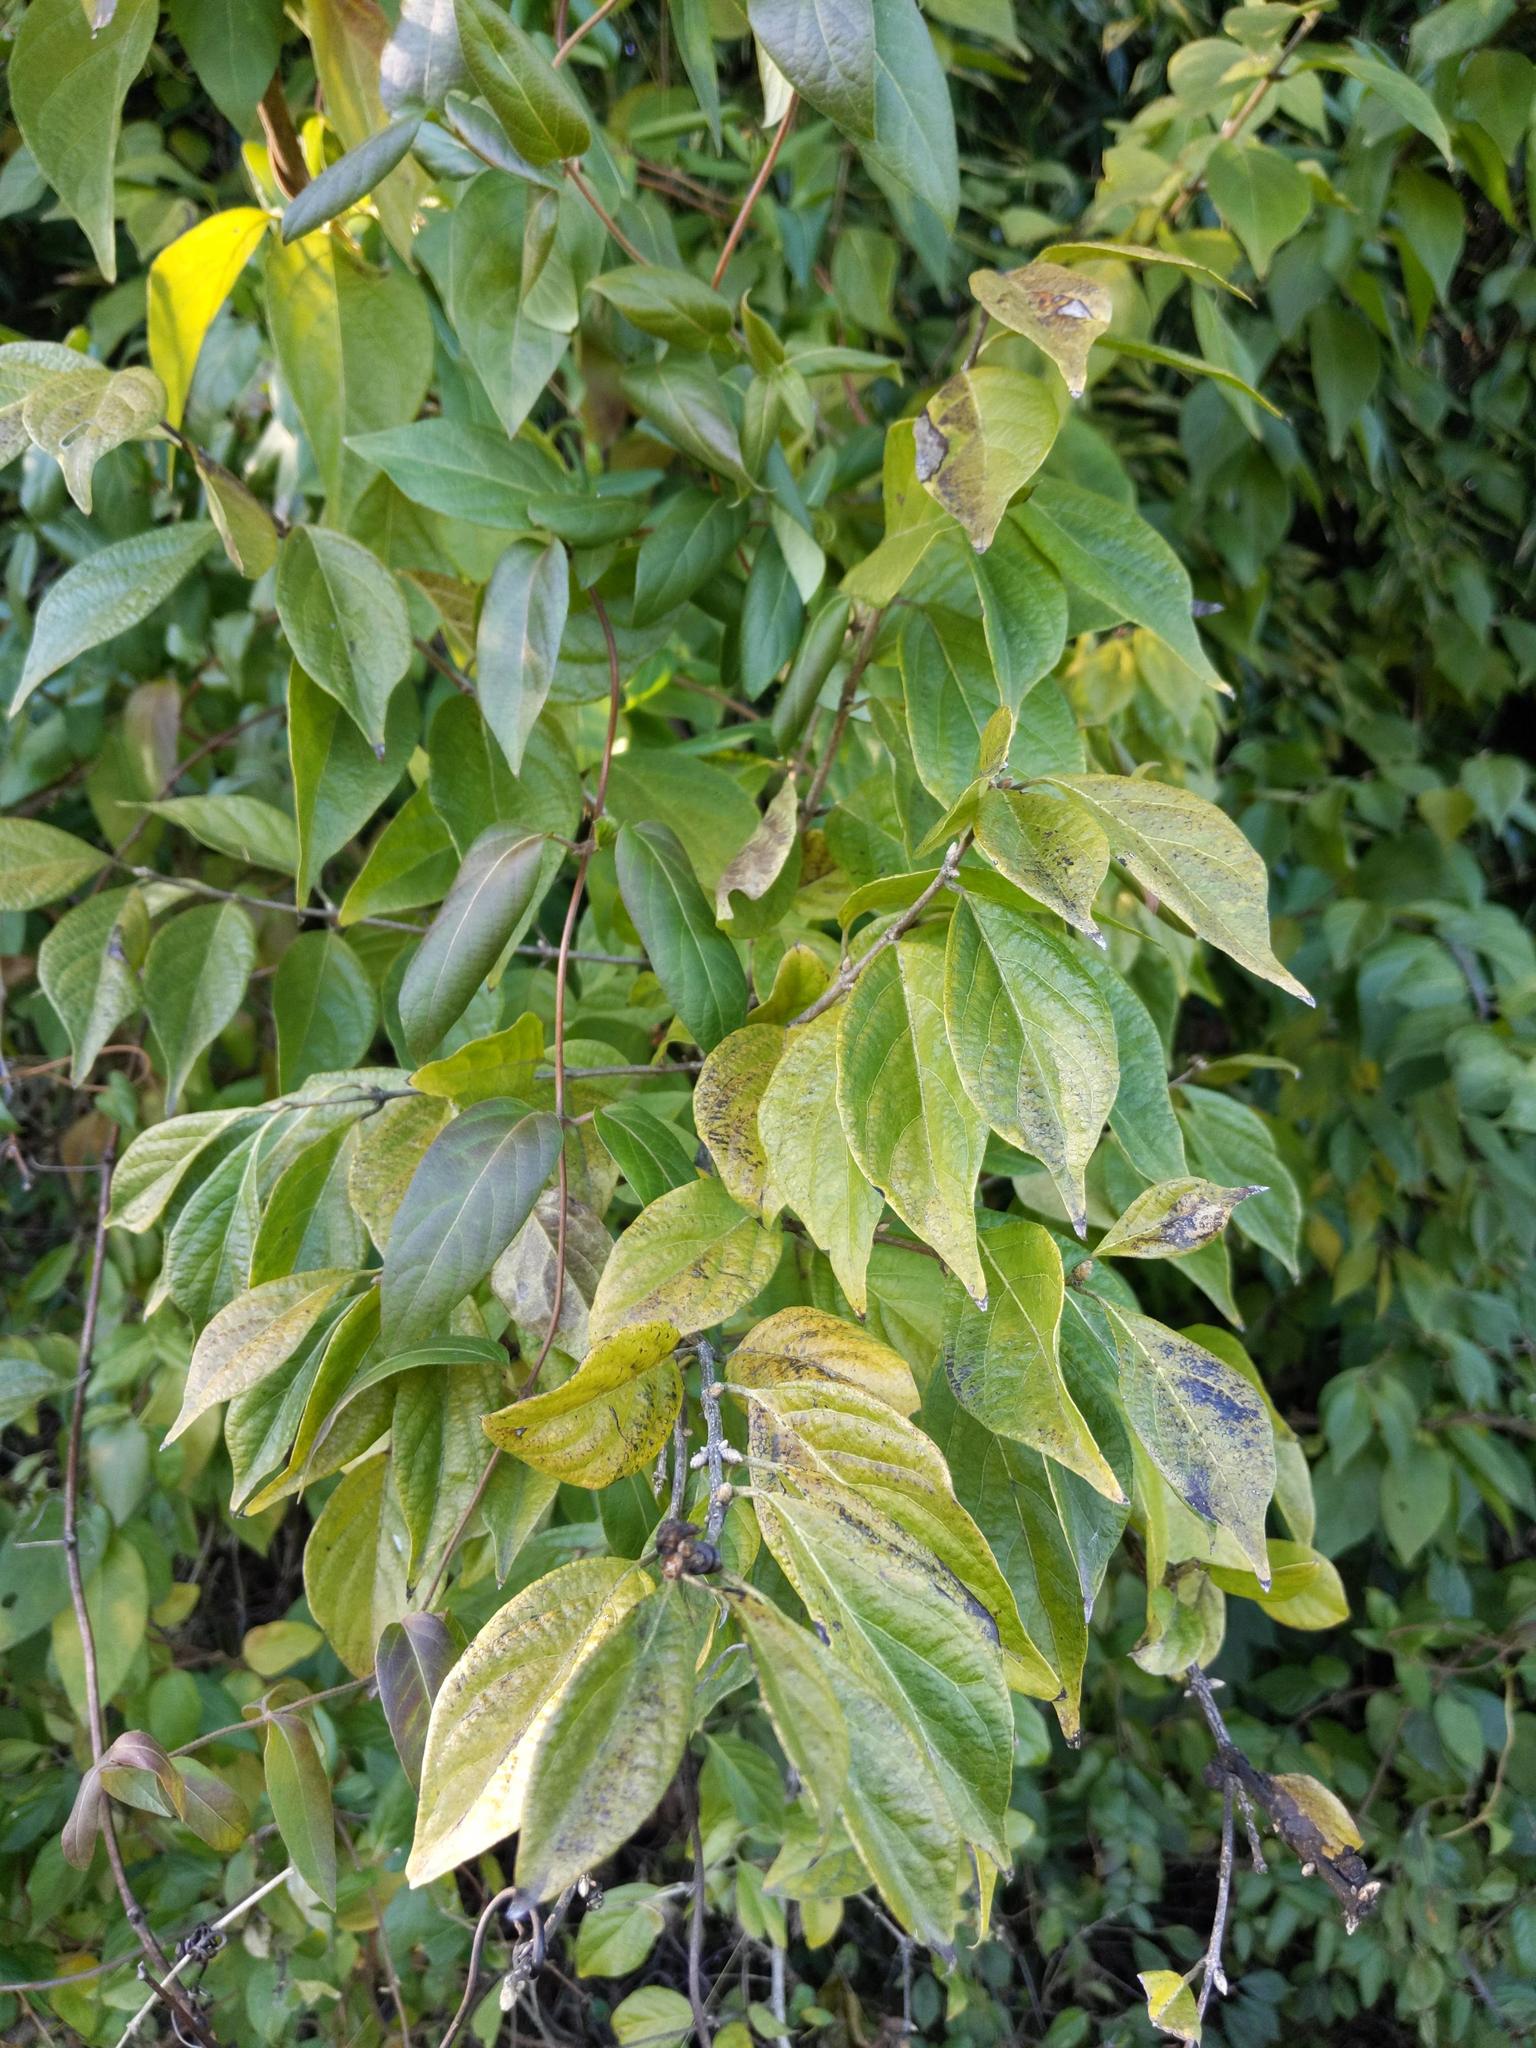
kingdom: Plantae
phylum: Tracheophyta
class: Magnoliopsida
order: Dipsacales
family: Caprifoliaceae
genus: Lonicera
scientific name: Lonicera maackii
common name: Amur honeysuckle
